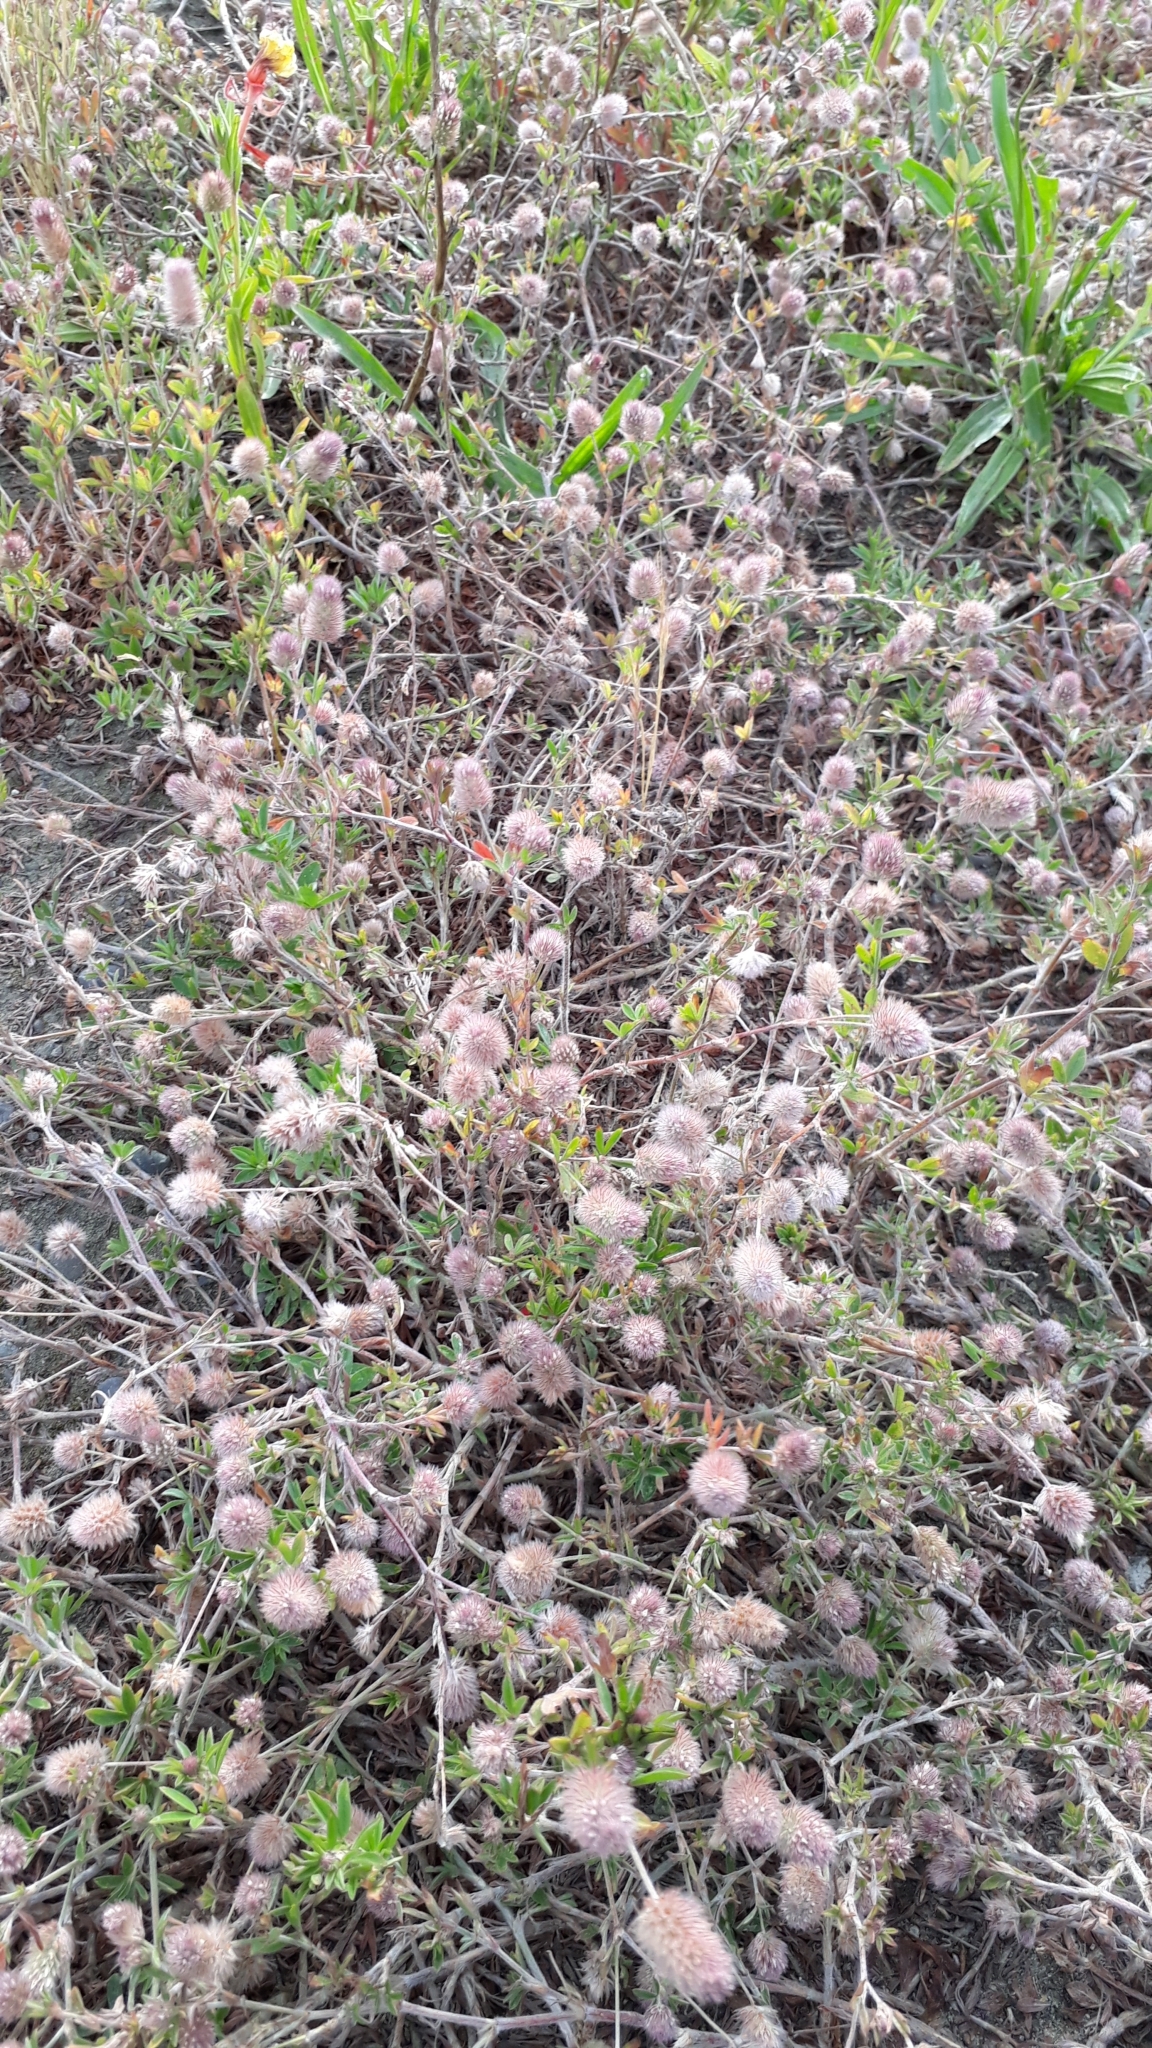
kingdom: Plantae
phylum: Tracheophyta
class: Magnoliopsida
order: Fabales
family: Fabaceae
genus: Trifolium
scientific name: Trifolium arvense
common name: Hare's-foot clover
